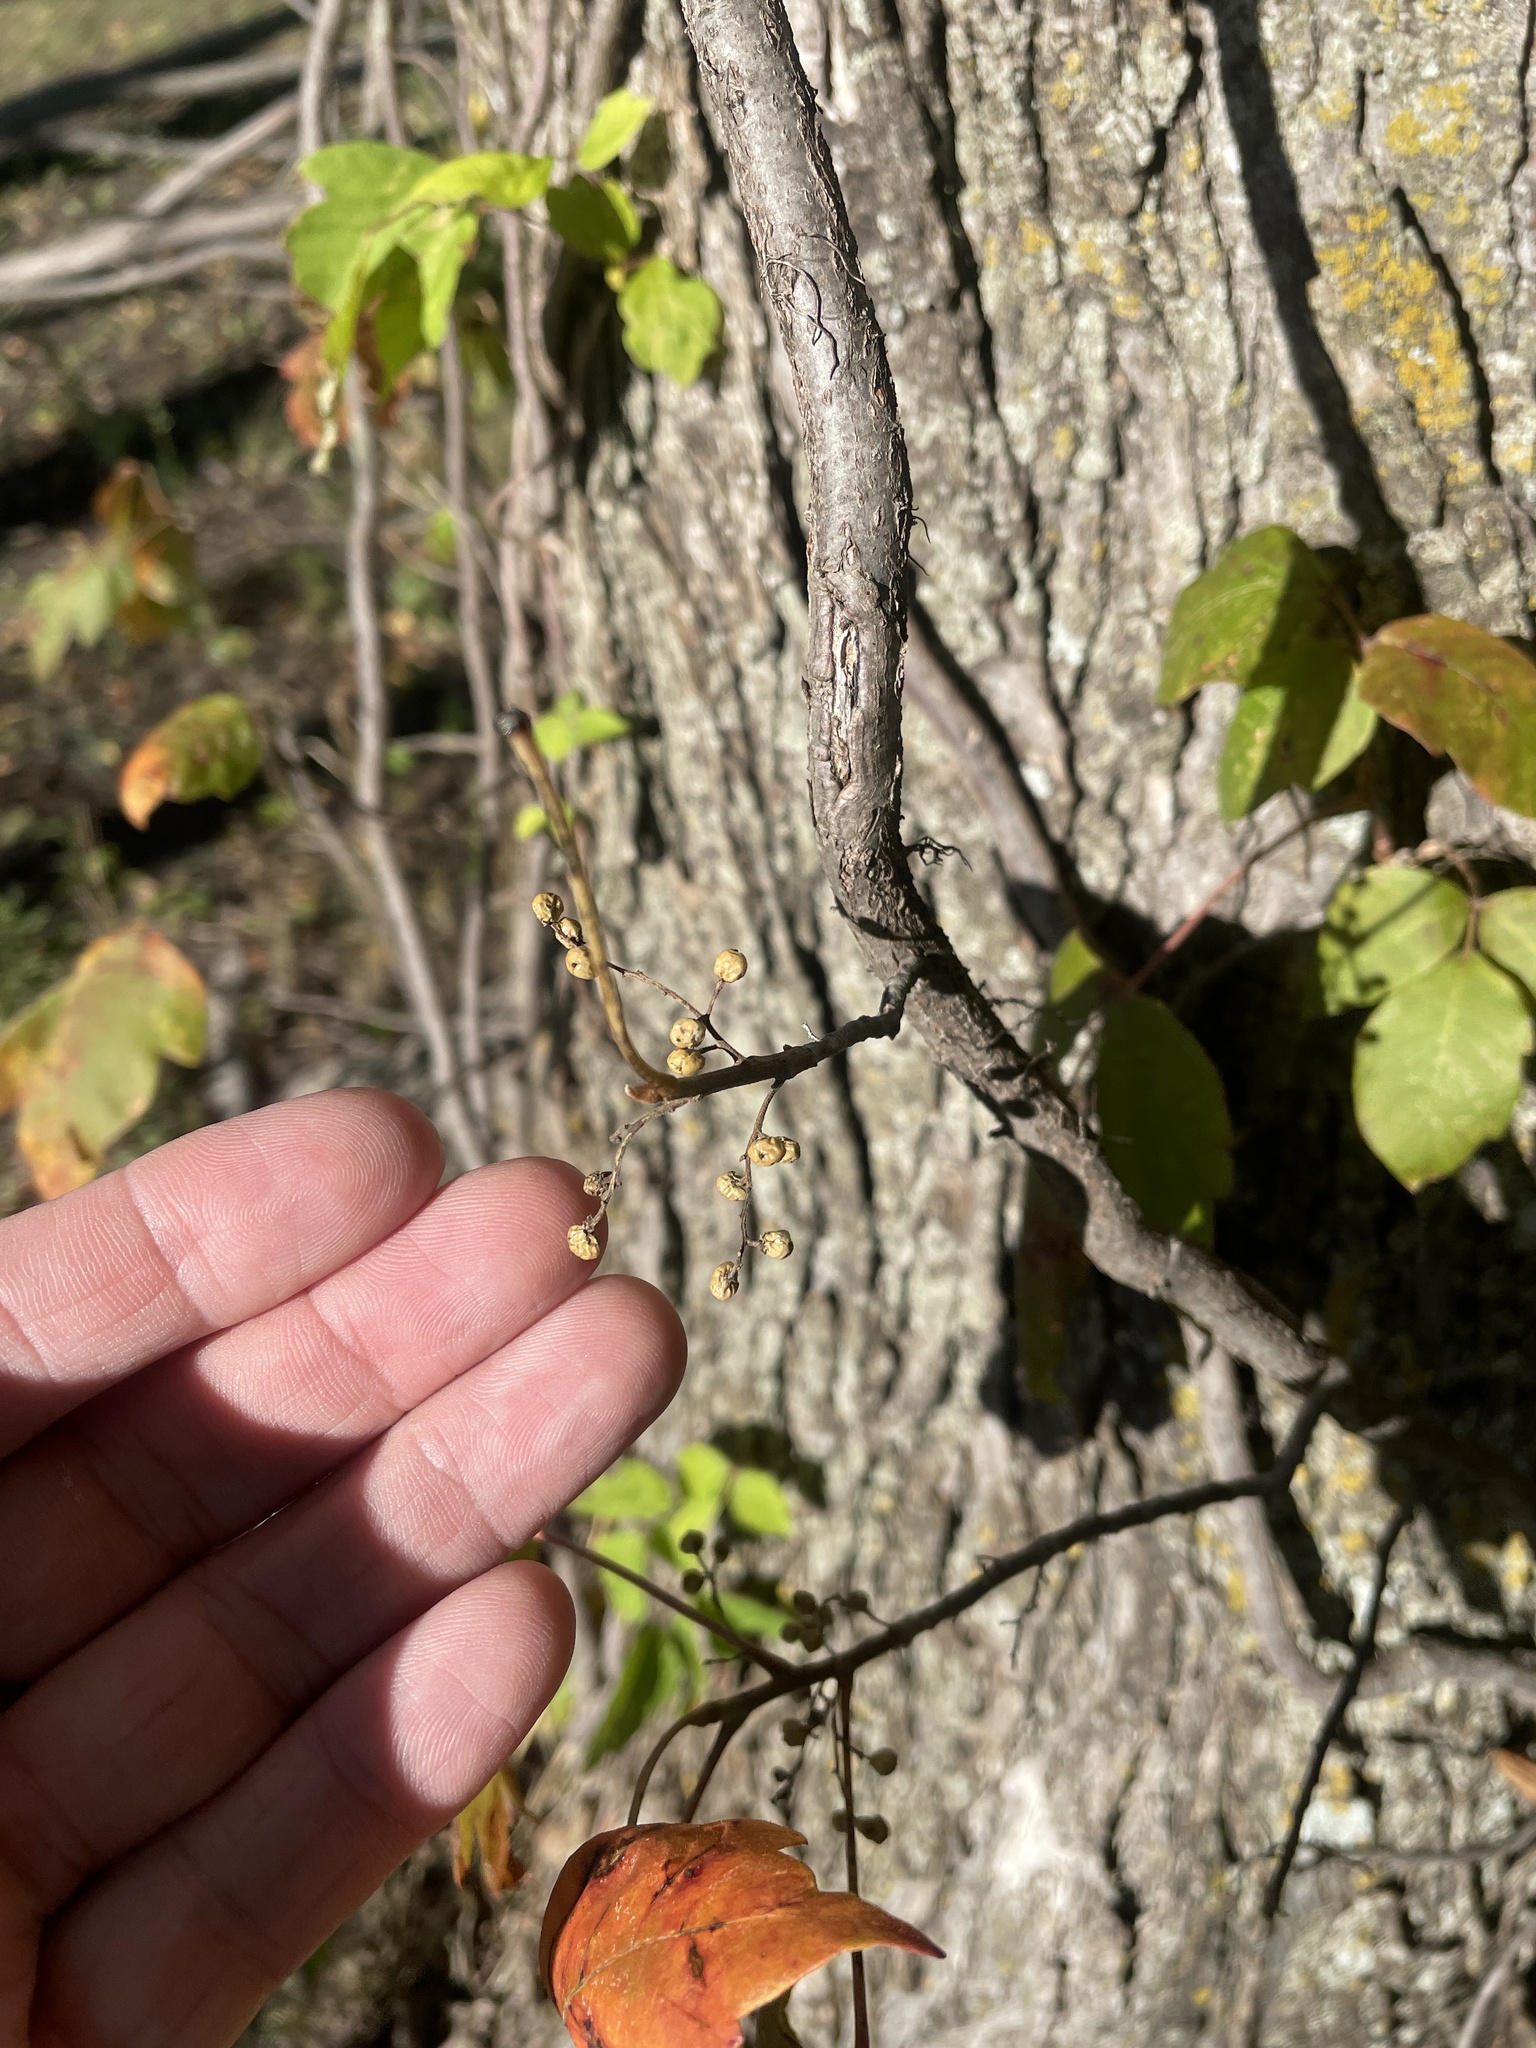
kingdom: Plantae
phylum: Tracheophyta
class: Magnoliopsida
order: Sapindales
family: Anacardiaceae
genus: Toxicodendron
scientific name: Toxicodendron radicans
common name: Poison ivy
